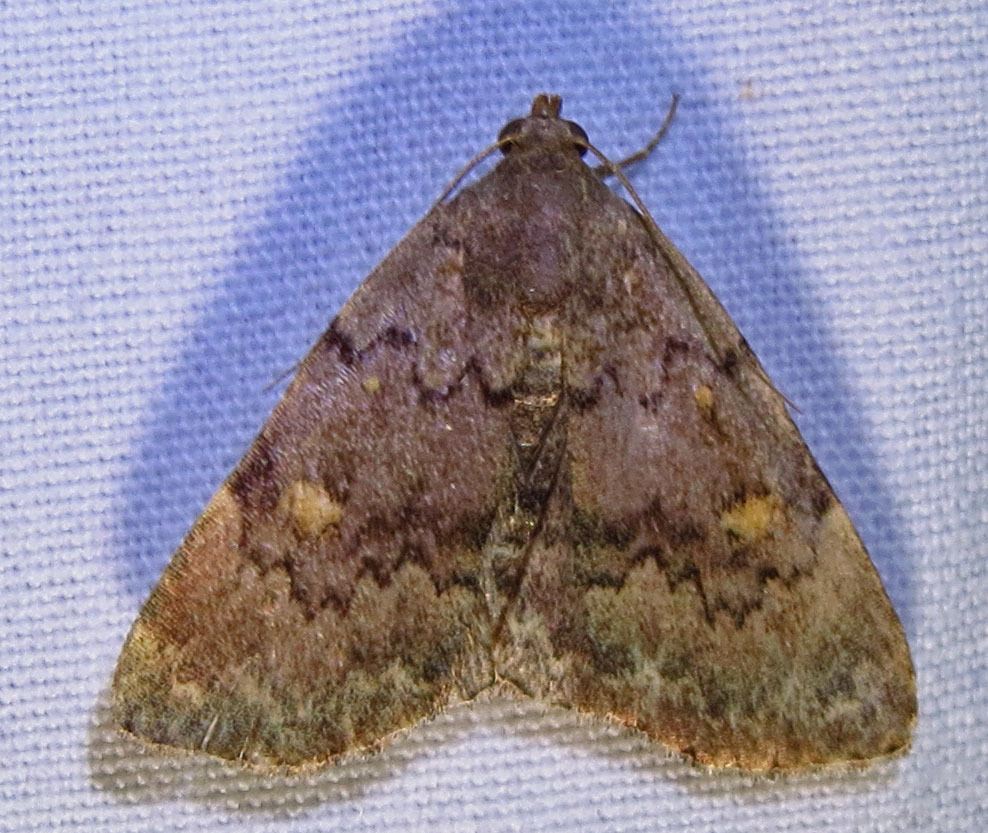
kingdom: Animalia
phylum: Arthropoda
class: Insecta
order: Lepidoptera
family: Erebidae
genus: Idia
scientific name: Idia aemula
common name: Common idia moth
